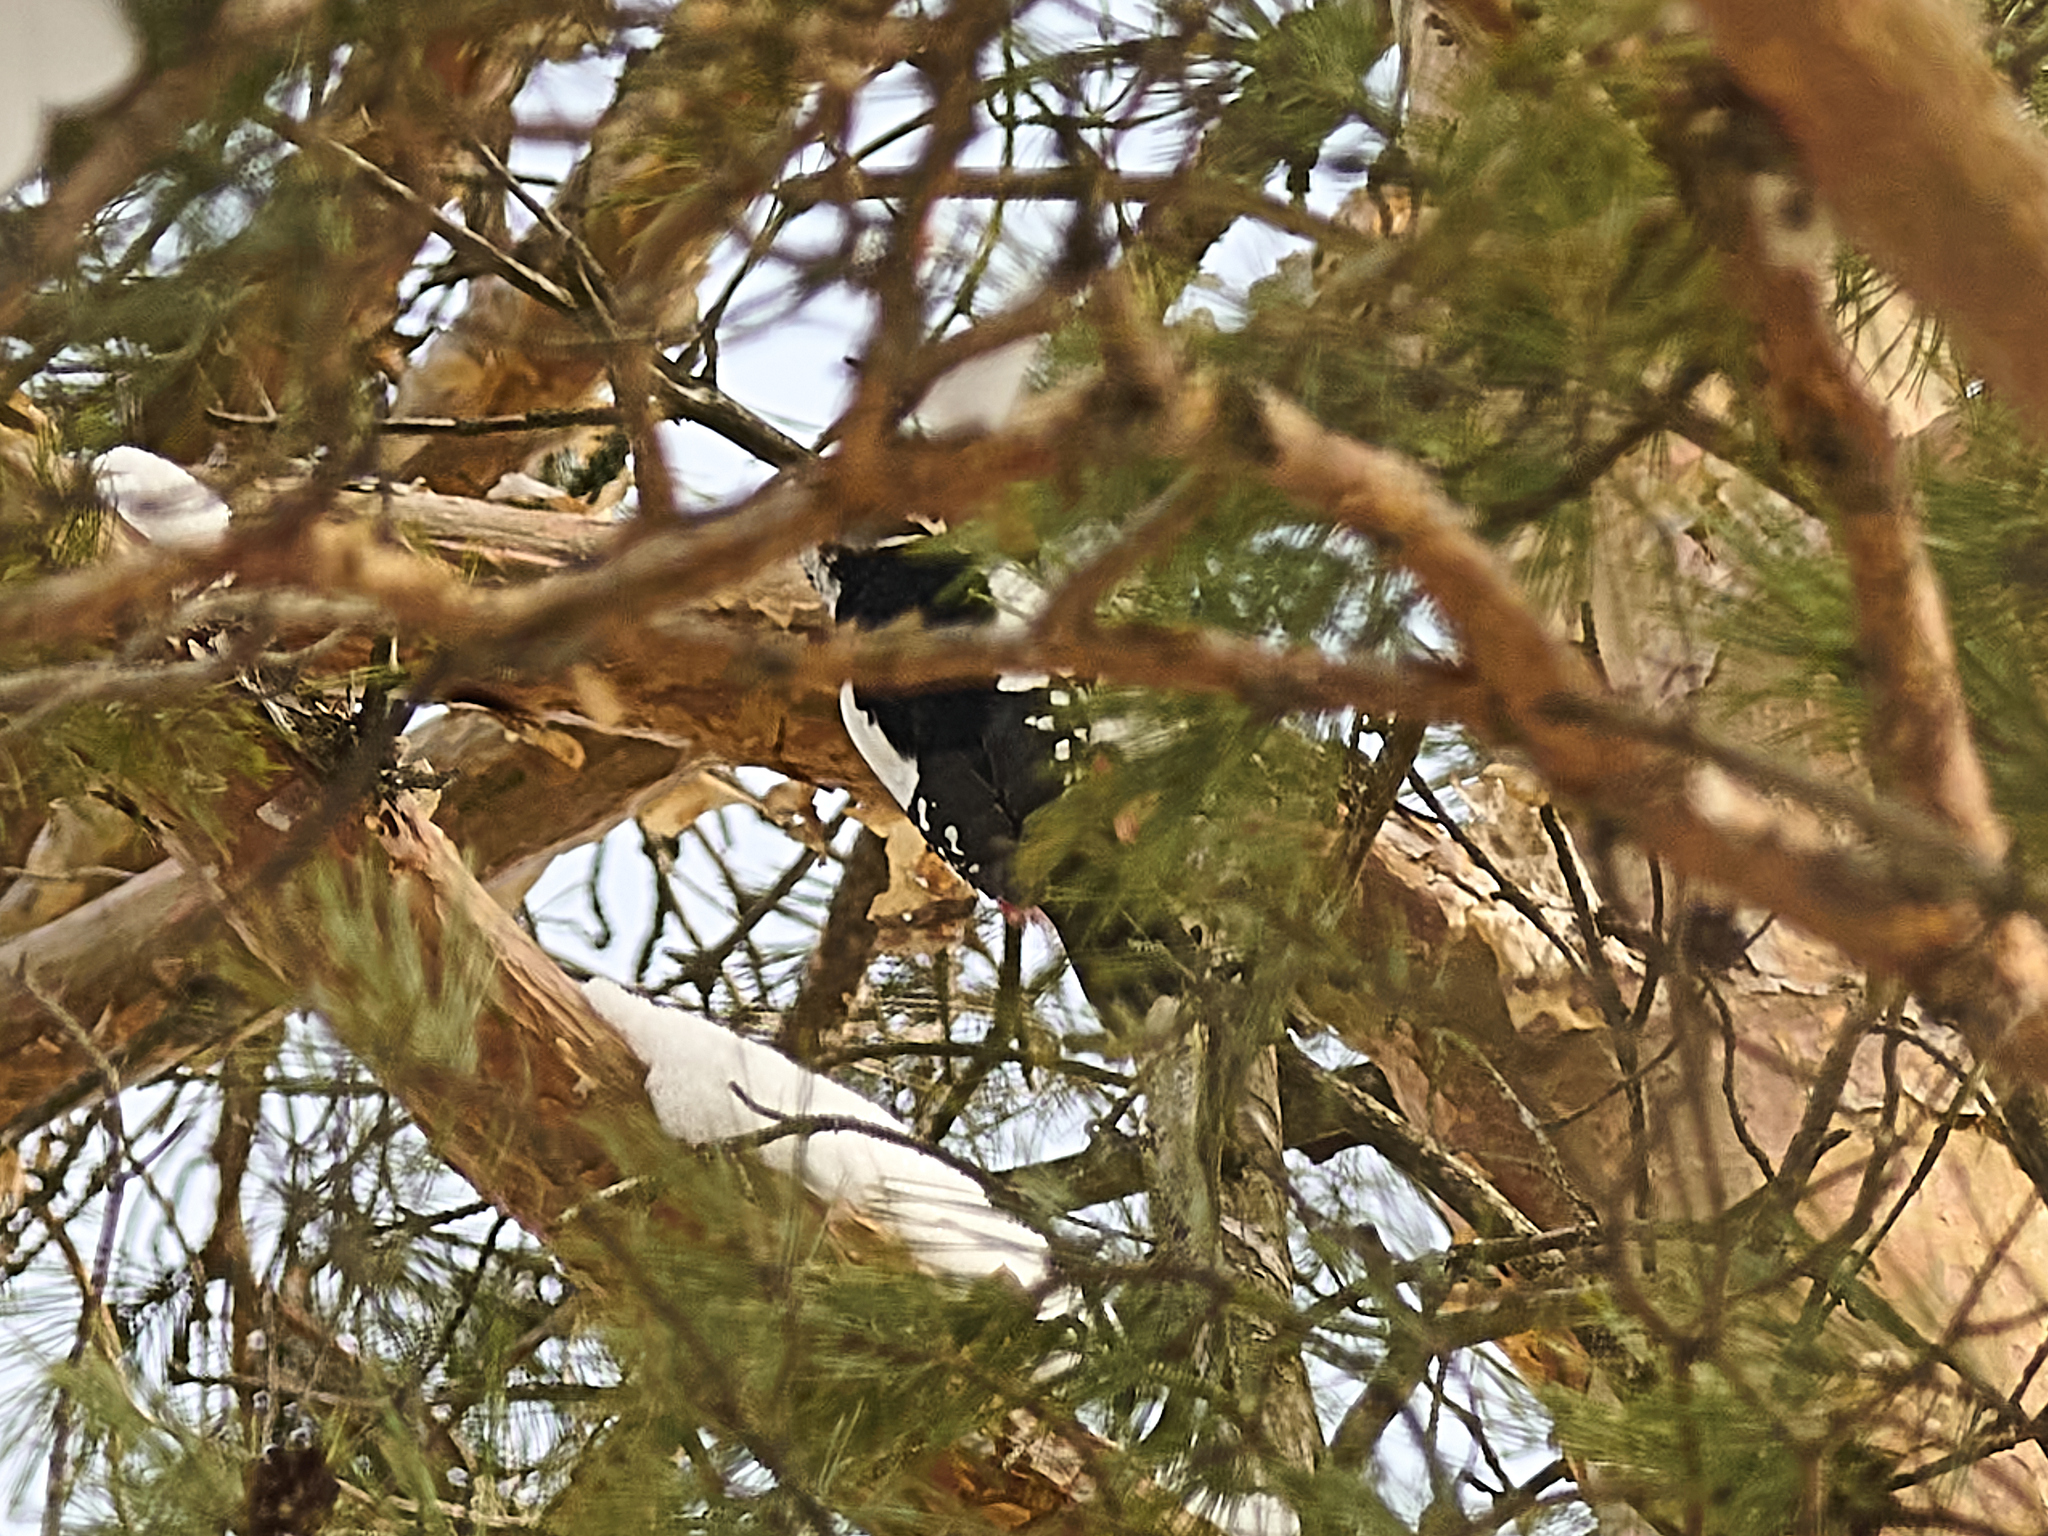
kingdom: Animalia
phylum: Chordata
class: Aves
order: Piciformes
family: Picidae
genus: Dendrocopos
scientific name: Dendrocopos major
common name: Great spotted woodpecker
